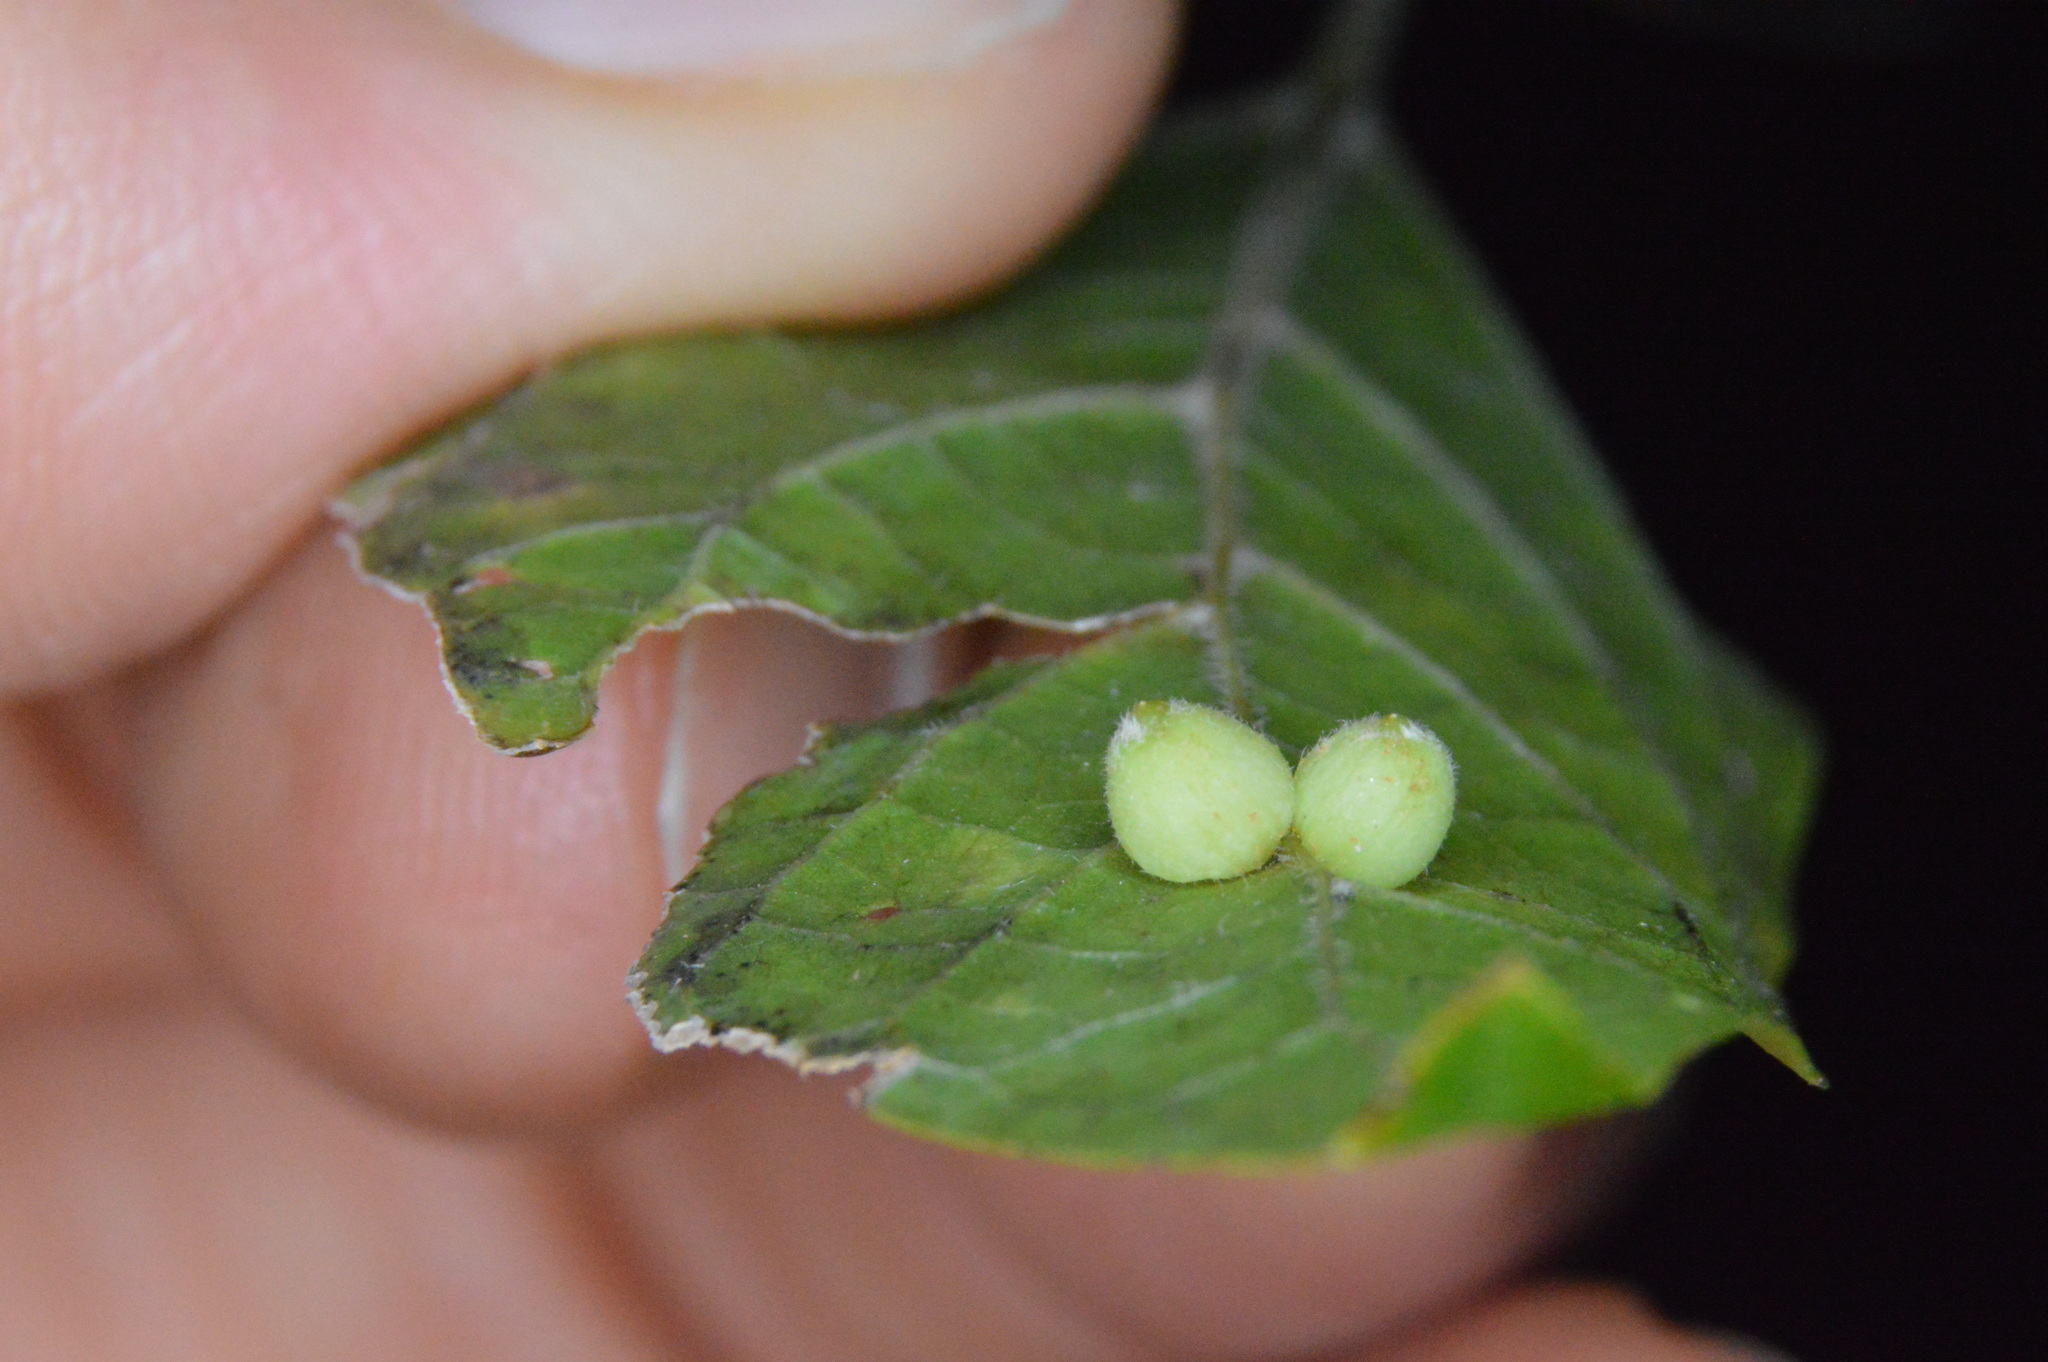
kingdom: Animalia
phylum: Arthropoda
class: Insecta
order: Diptera
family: Cecidomyiidae
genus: Celticecis
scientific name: Celticecis globosa
